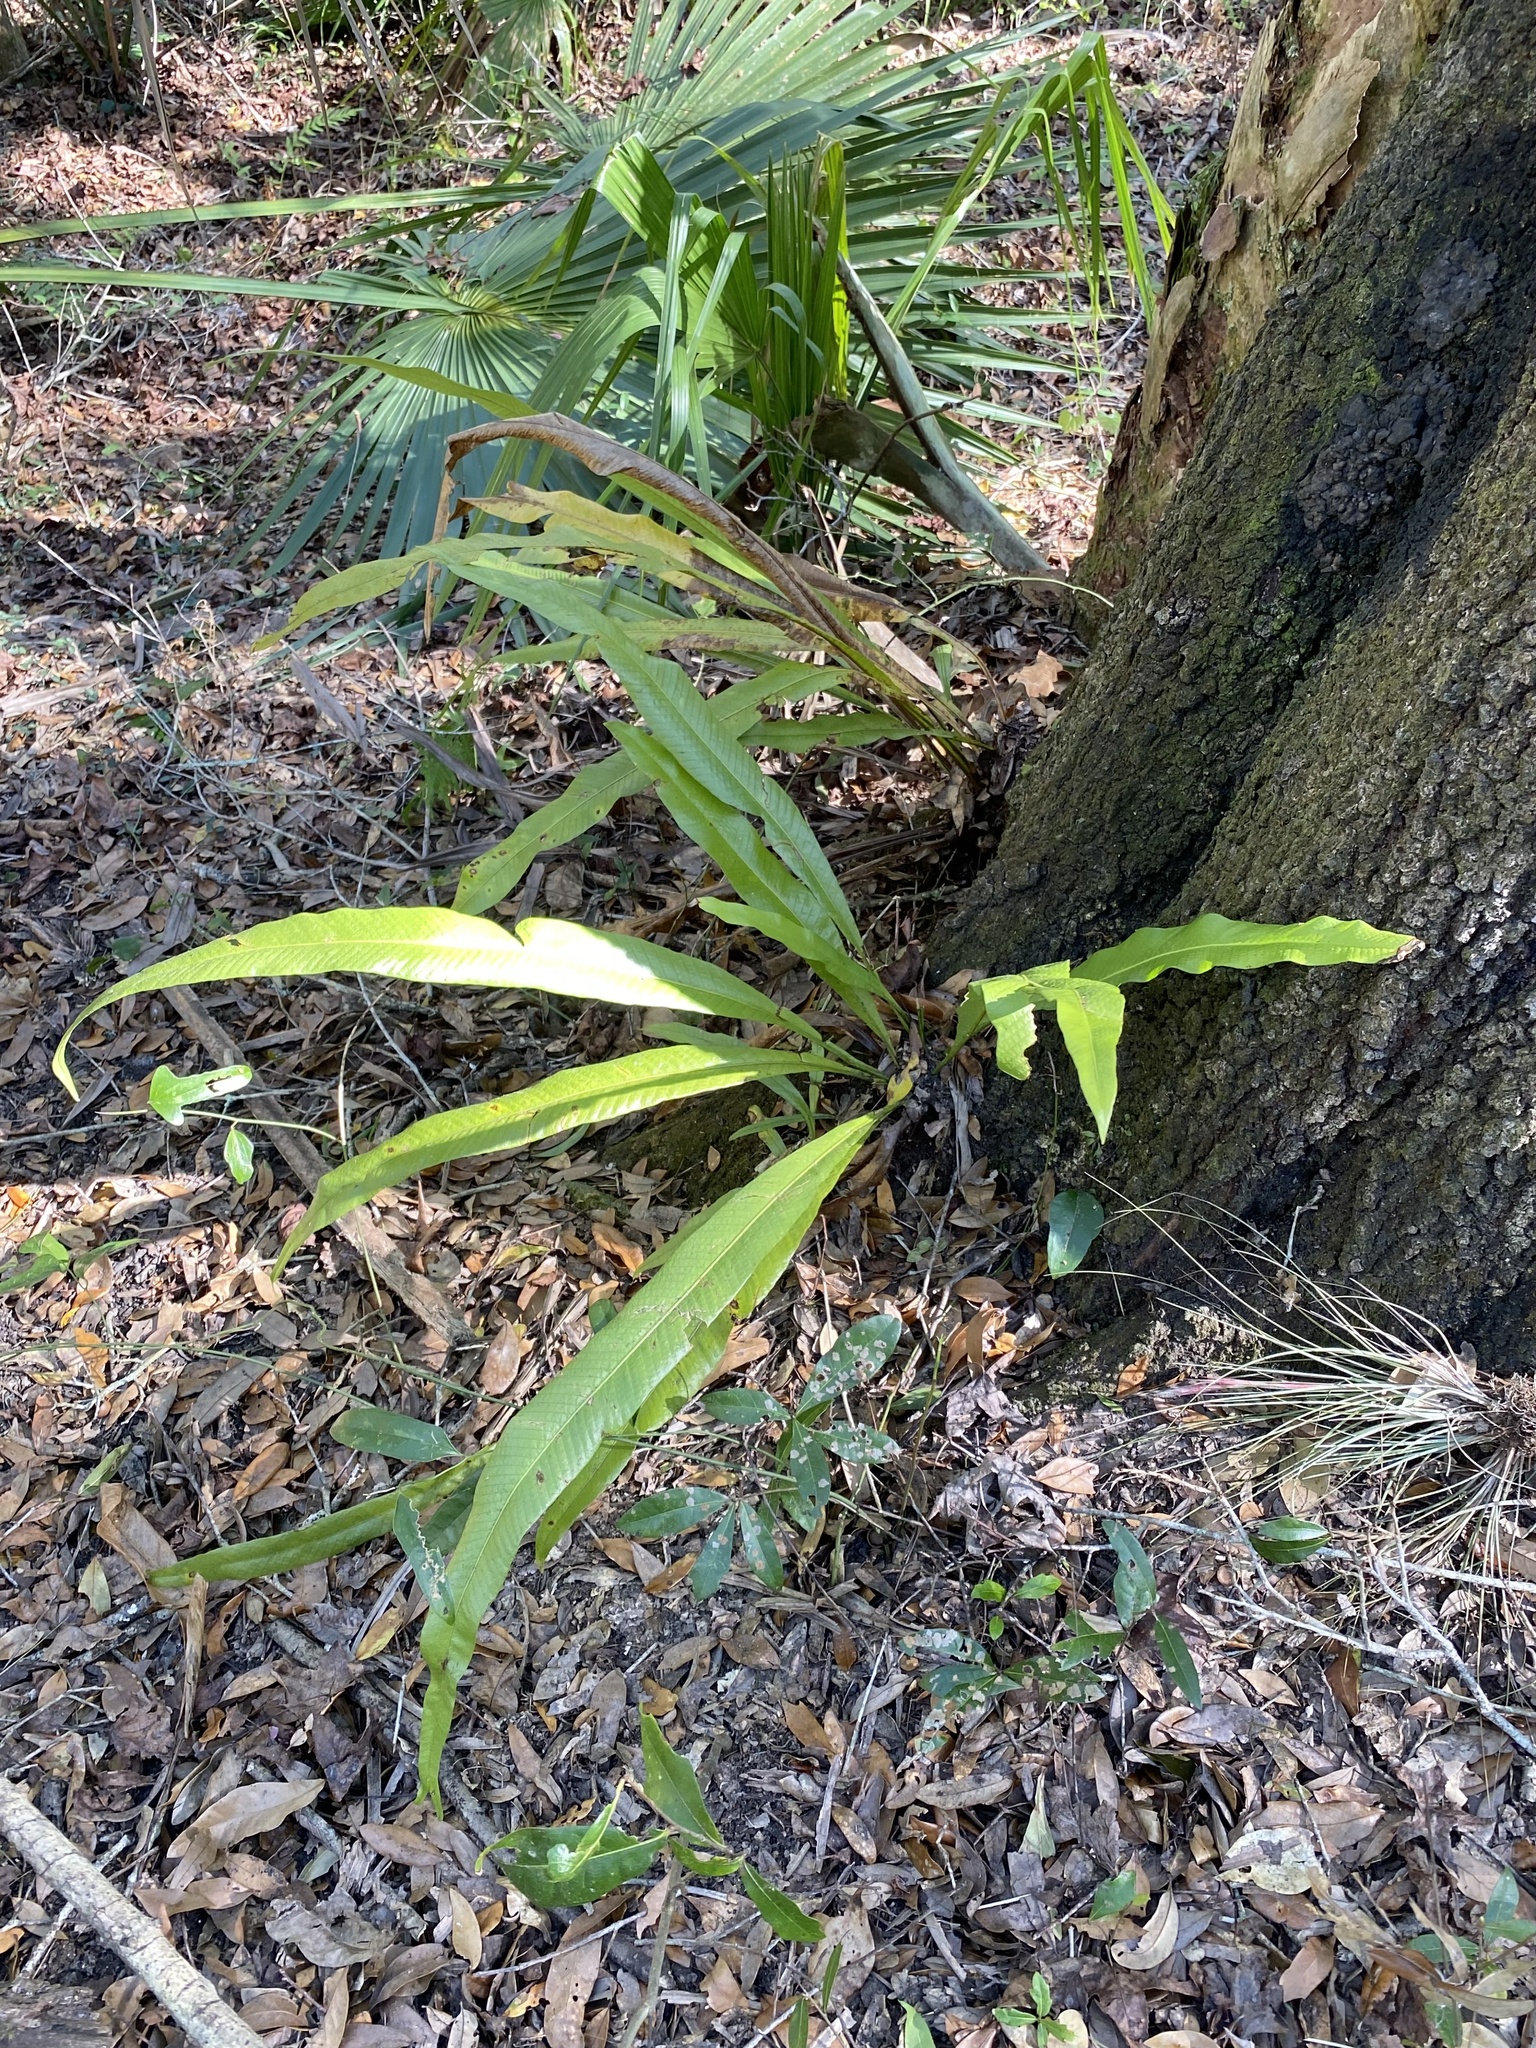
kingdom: Plantae
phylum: Tracheophyta
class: Polypodiopsida
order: Polypodiales
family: Polypodiaceae
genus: Campyloneurum
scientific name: Campyloneurum phyllitidis
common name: Cow-tongue fern
